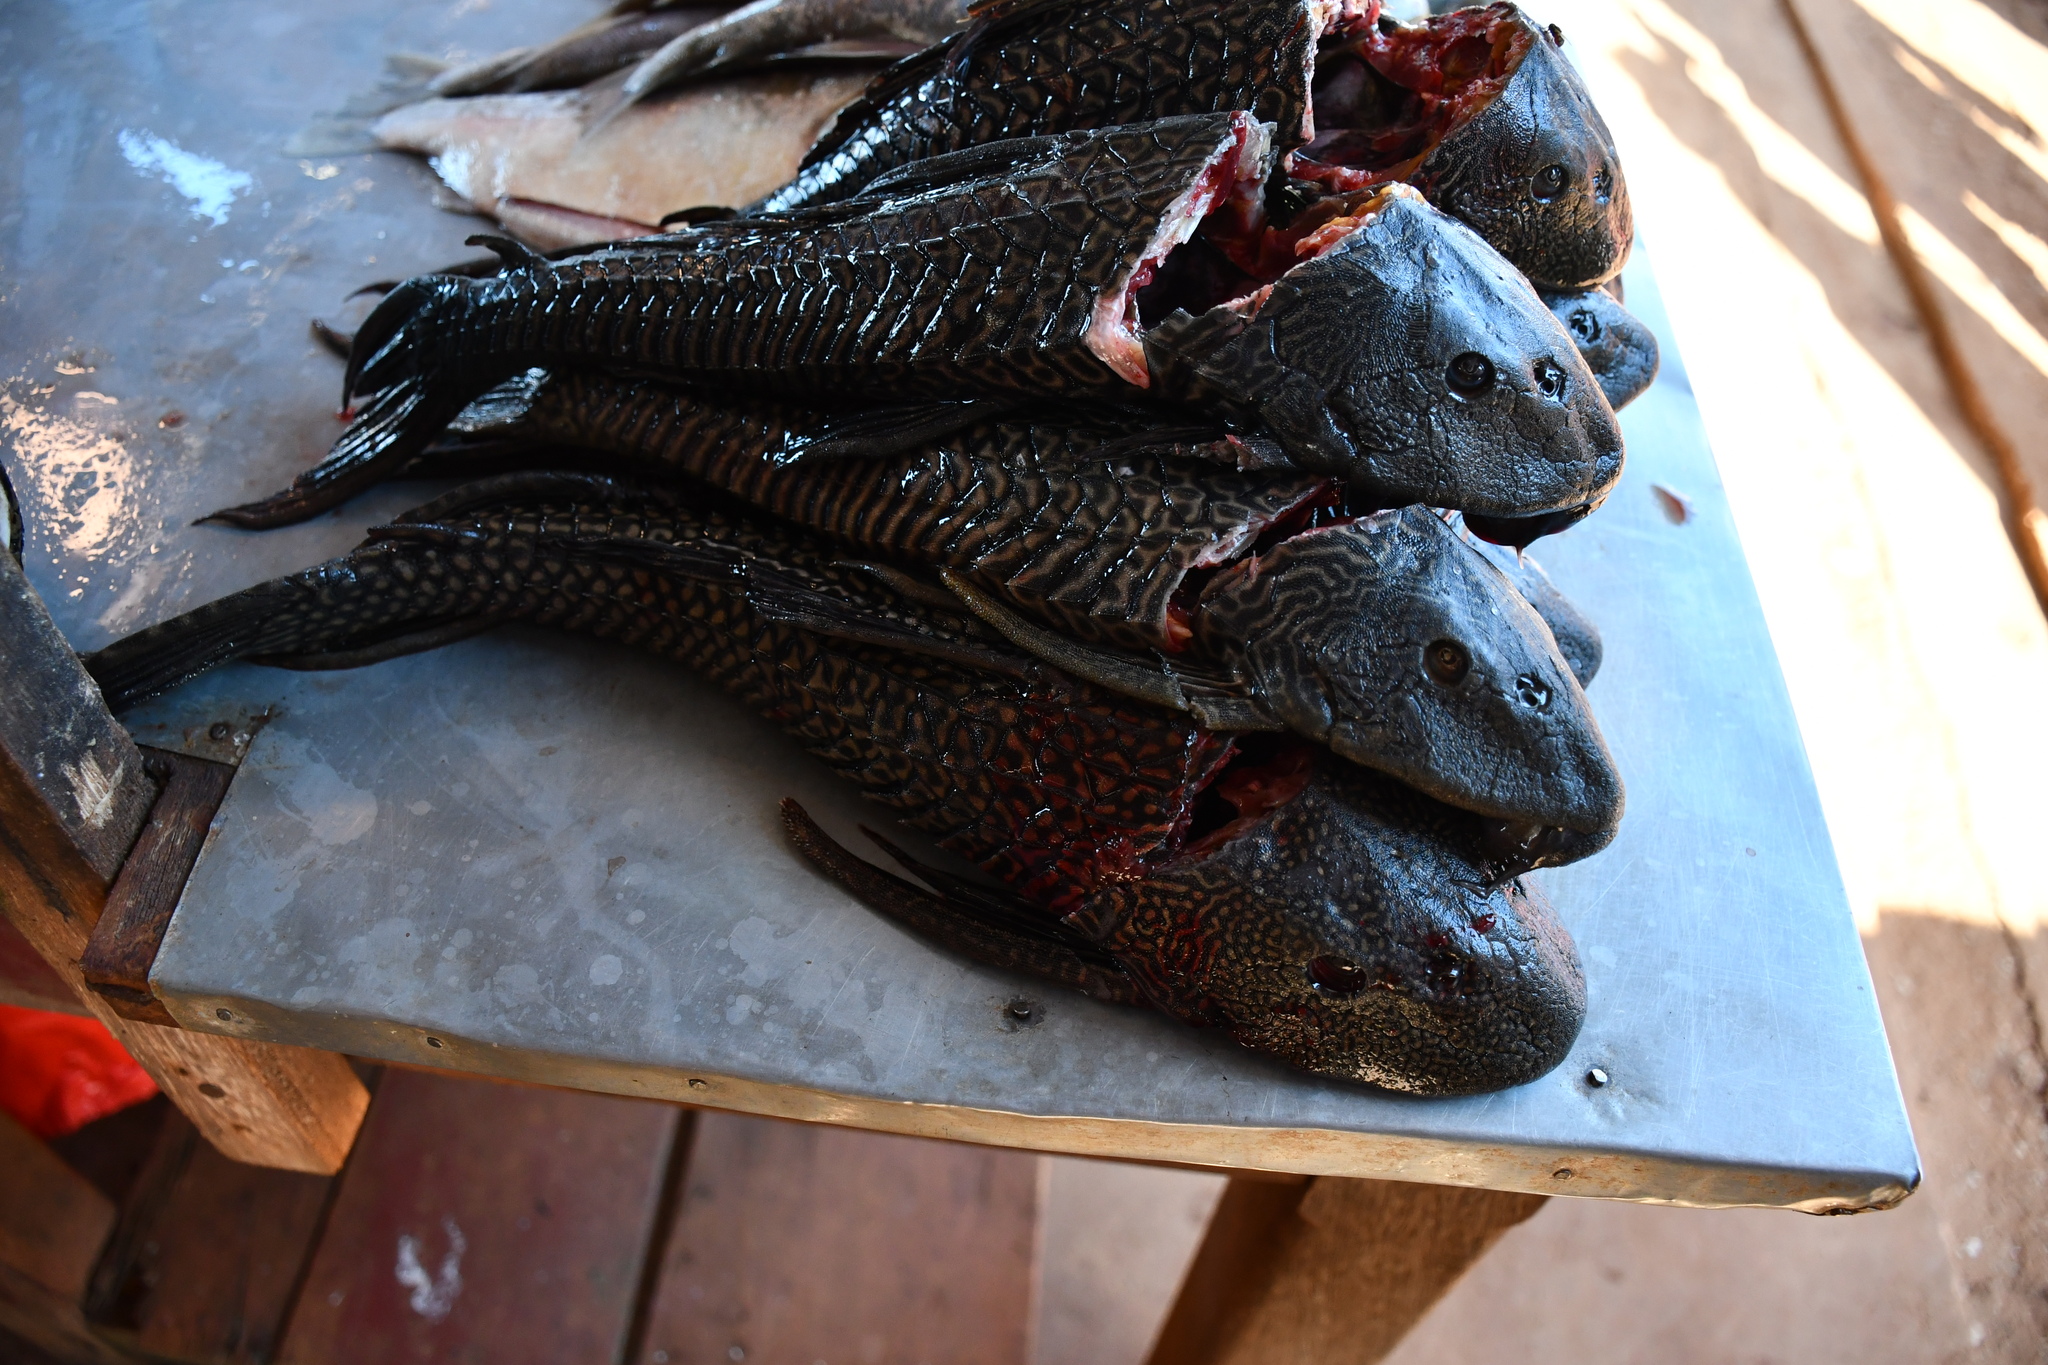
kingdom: Animalia
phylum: Chordata
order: Siluriformes
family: Loricariidae
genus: Pterygoplichthys
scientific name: Pterygoplichthys disjunctivus
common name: Vermiculated sailfin catfish
